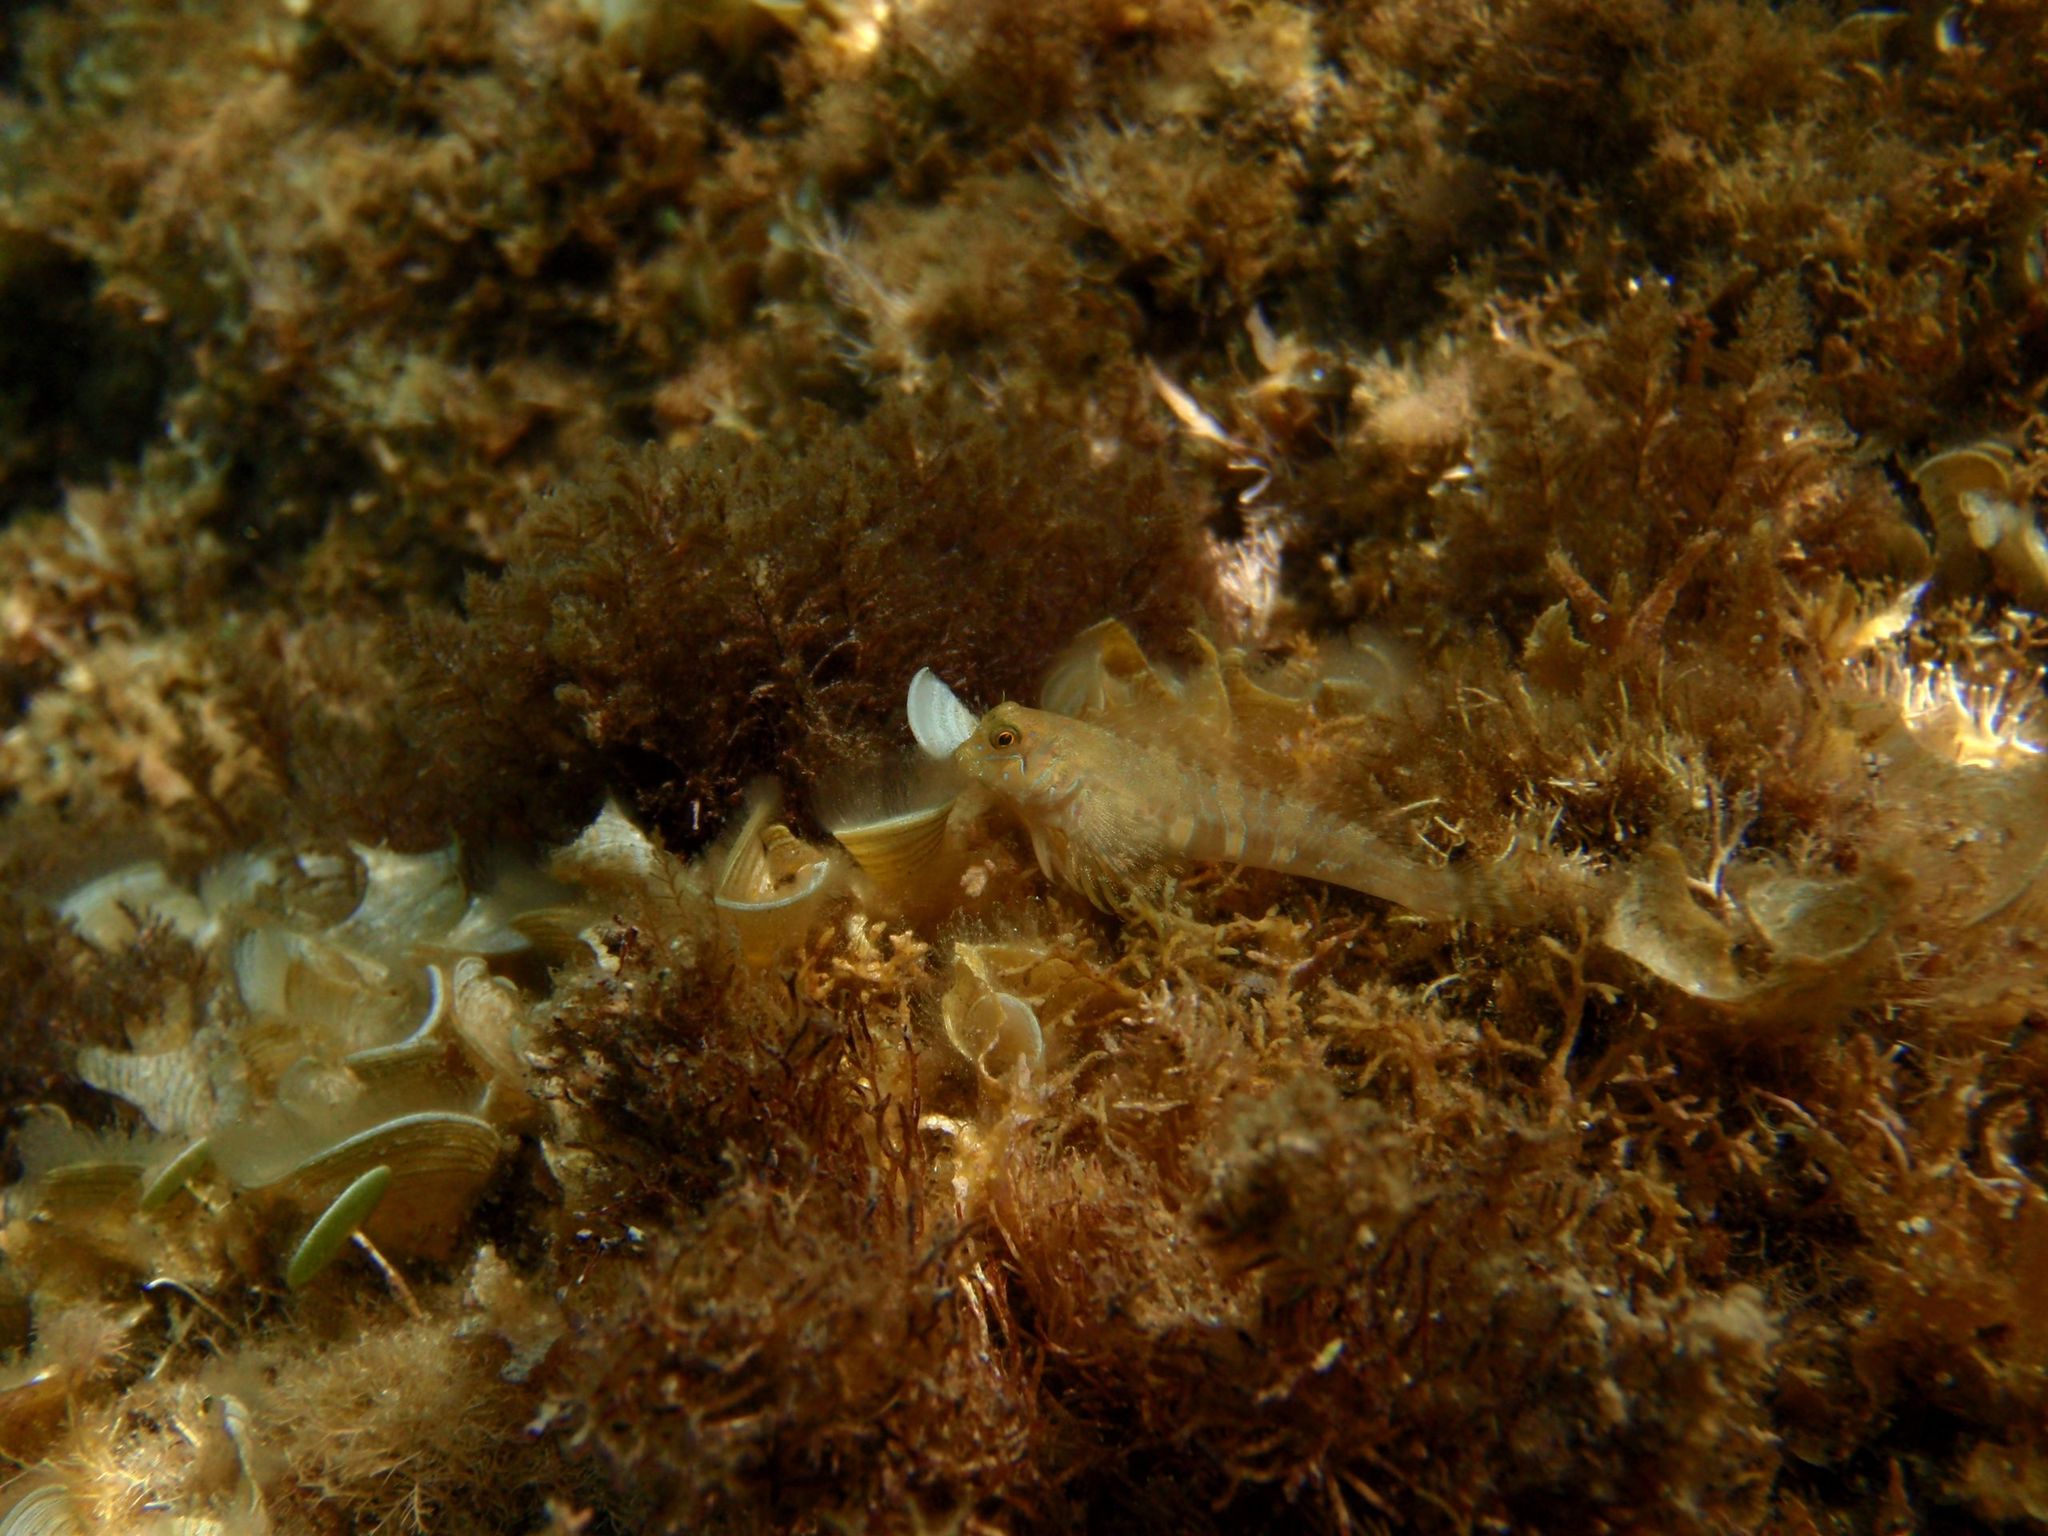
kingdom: Animalia
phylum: Chordata
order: Perciformes
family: Blenniidae
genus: Aidablennius
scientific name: Aidablennius sphynx
